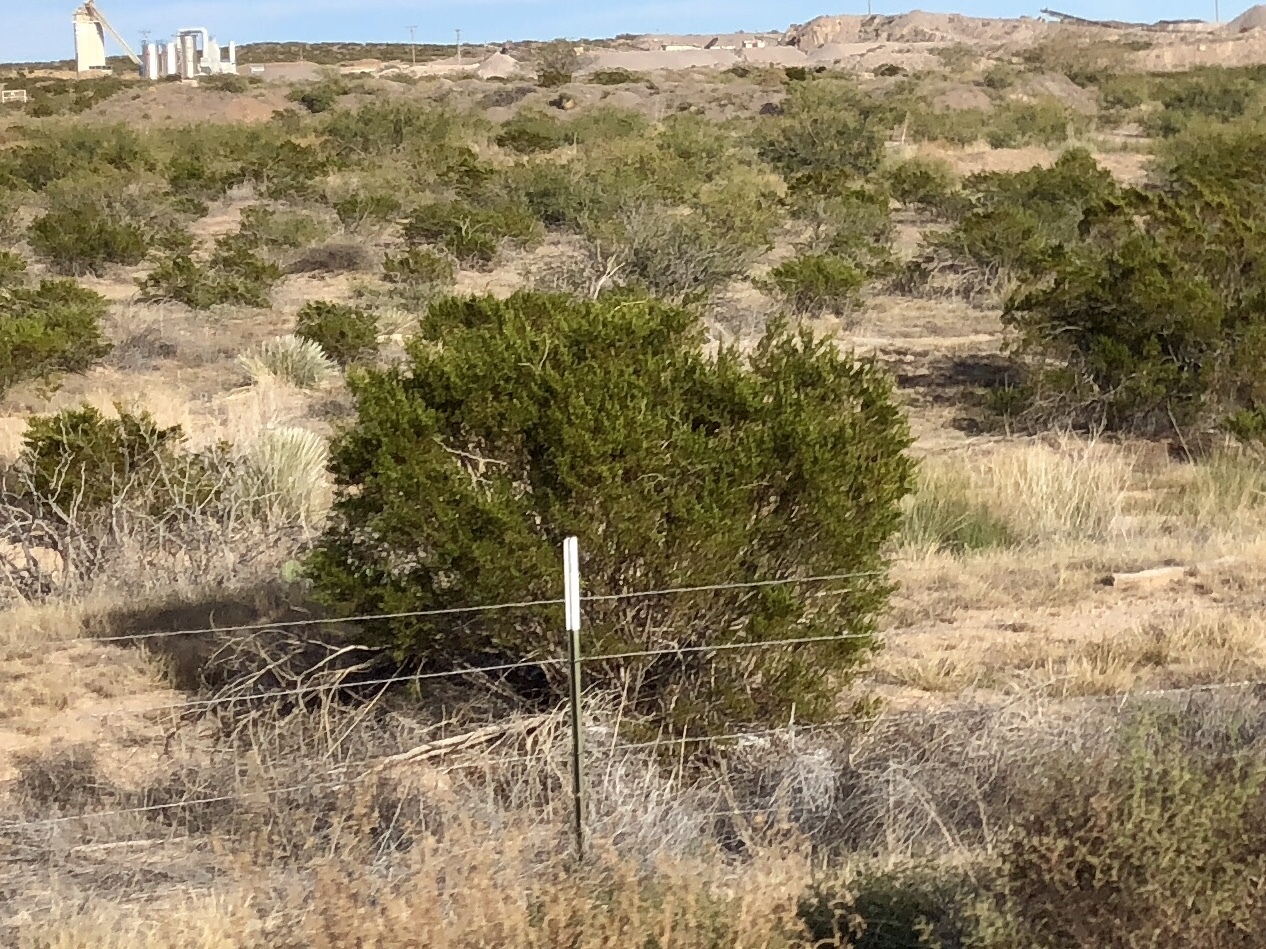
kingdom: Plantae
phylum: Tracheophyta
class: Magnoliopsida
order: Zygophyllales
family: Zygophyllaceae
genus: Larrea
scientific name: Larrea tridentata
